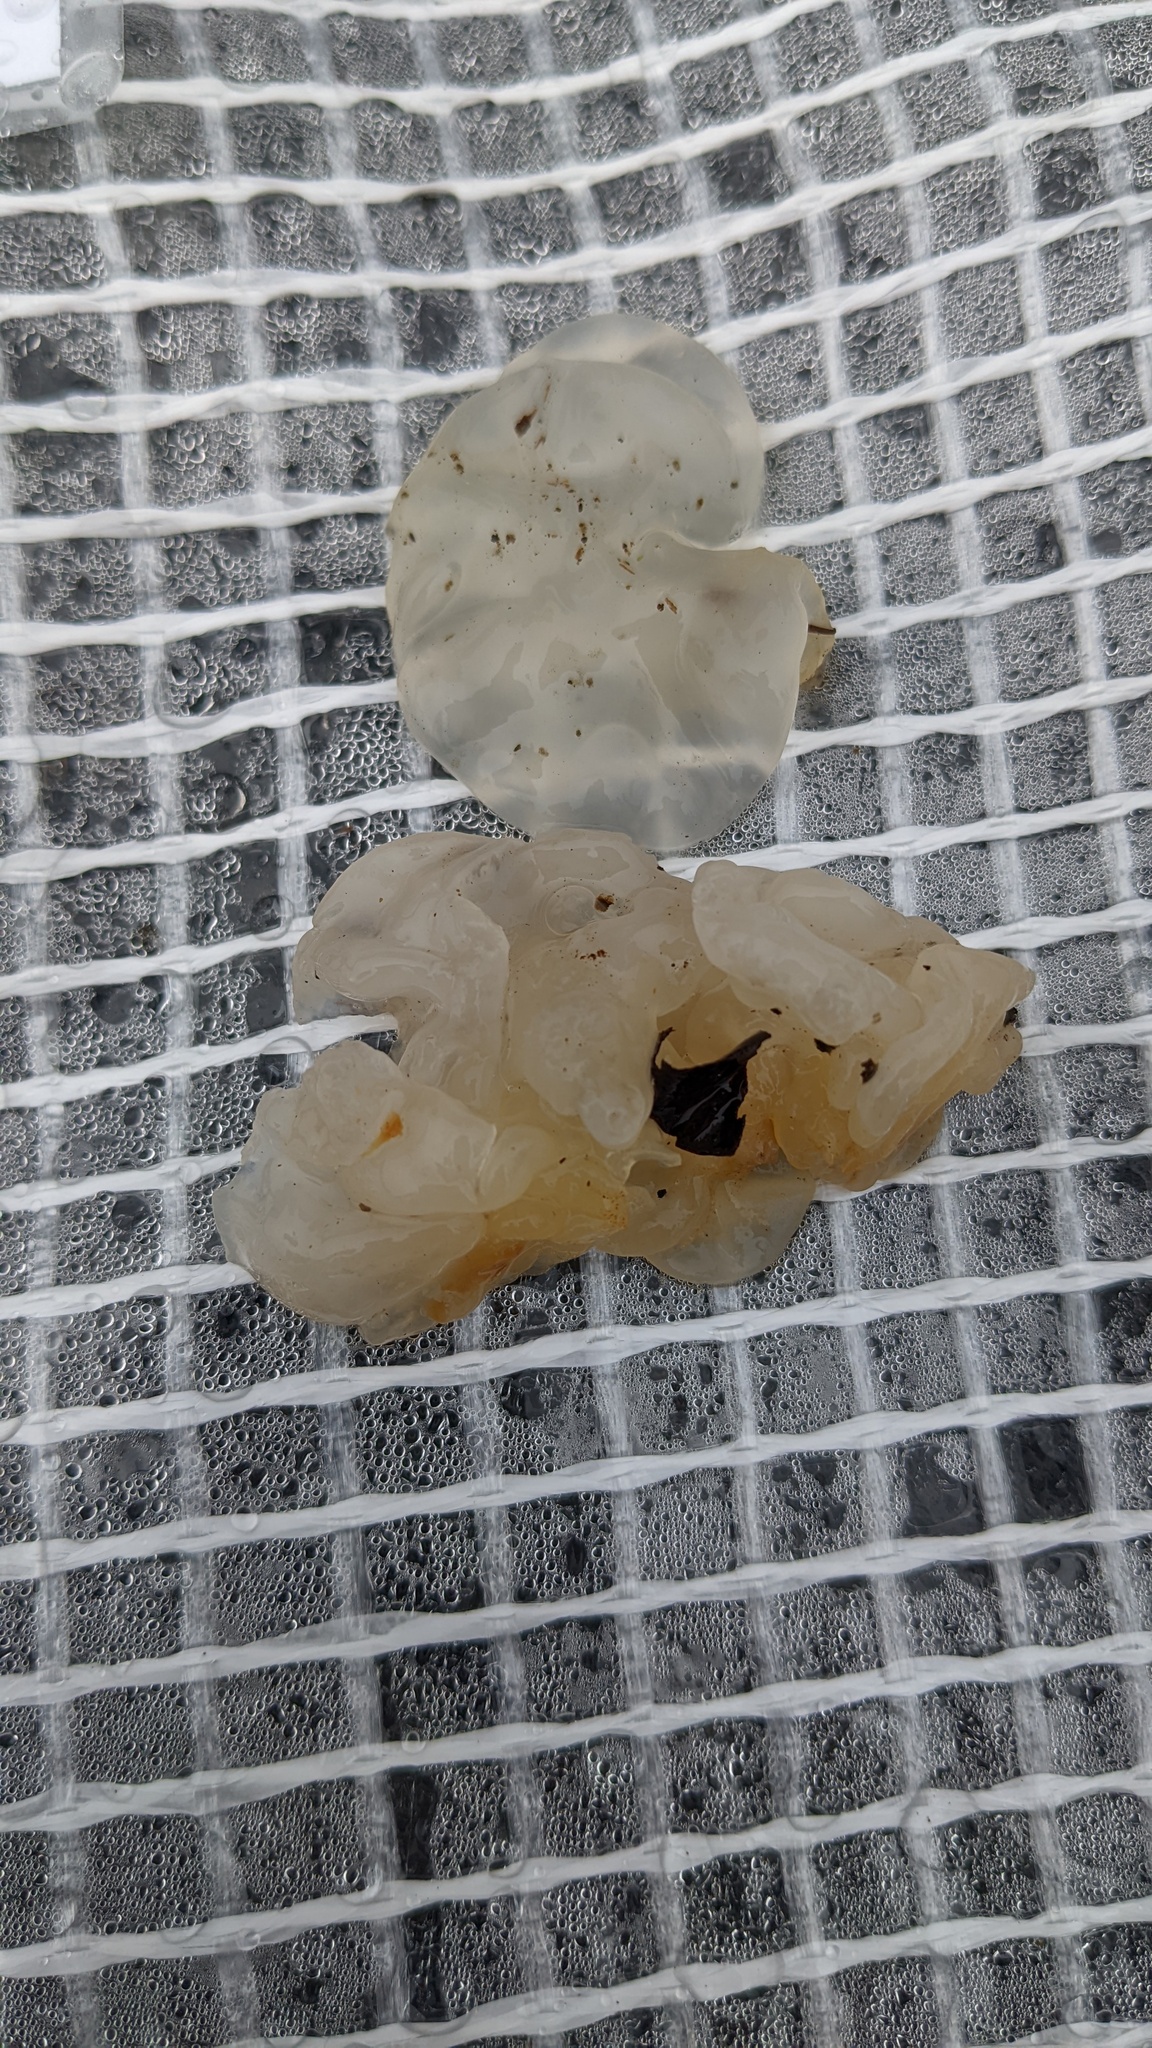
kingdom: Fungi
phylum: Basidiomycota
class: Tremellomycetes
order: Tremellales
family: Tremellaceae
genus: Tremella
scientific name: Tremella fuciformis
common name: Snow fungus
